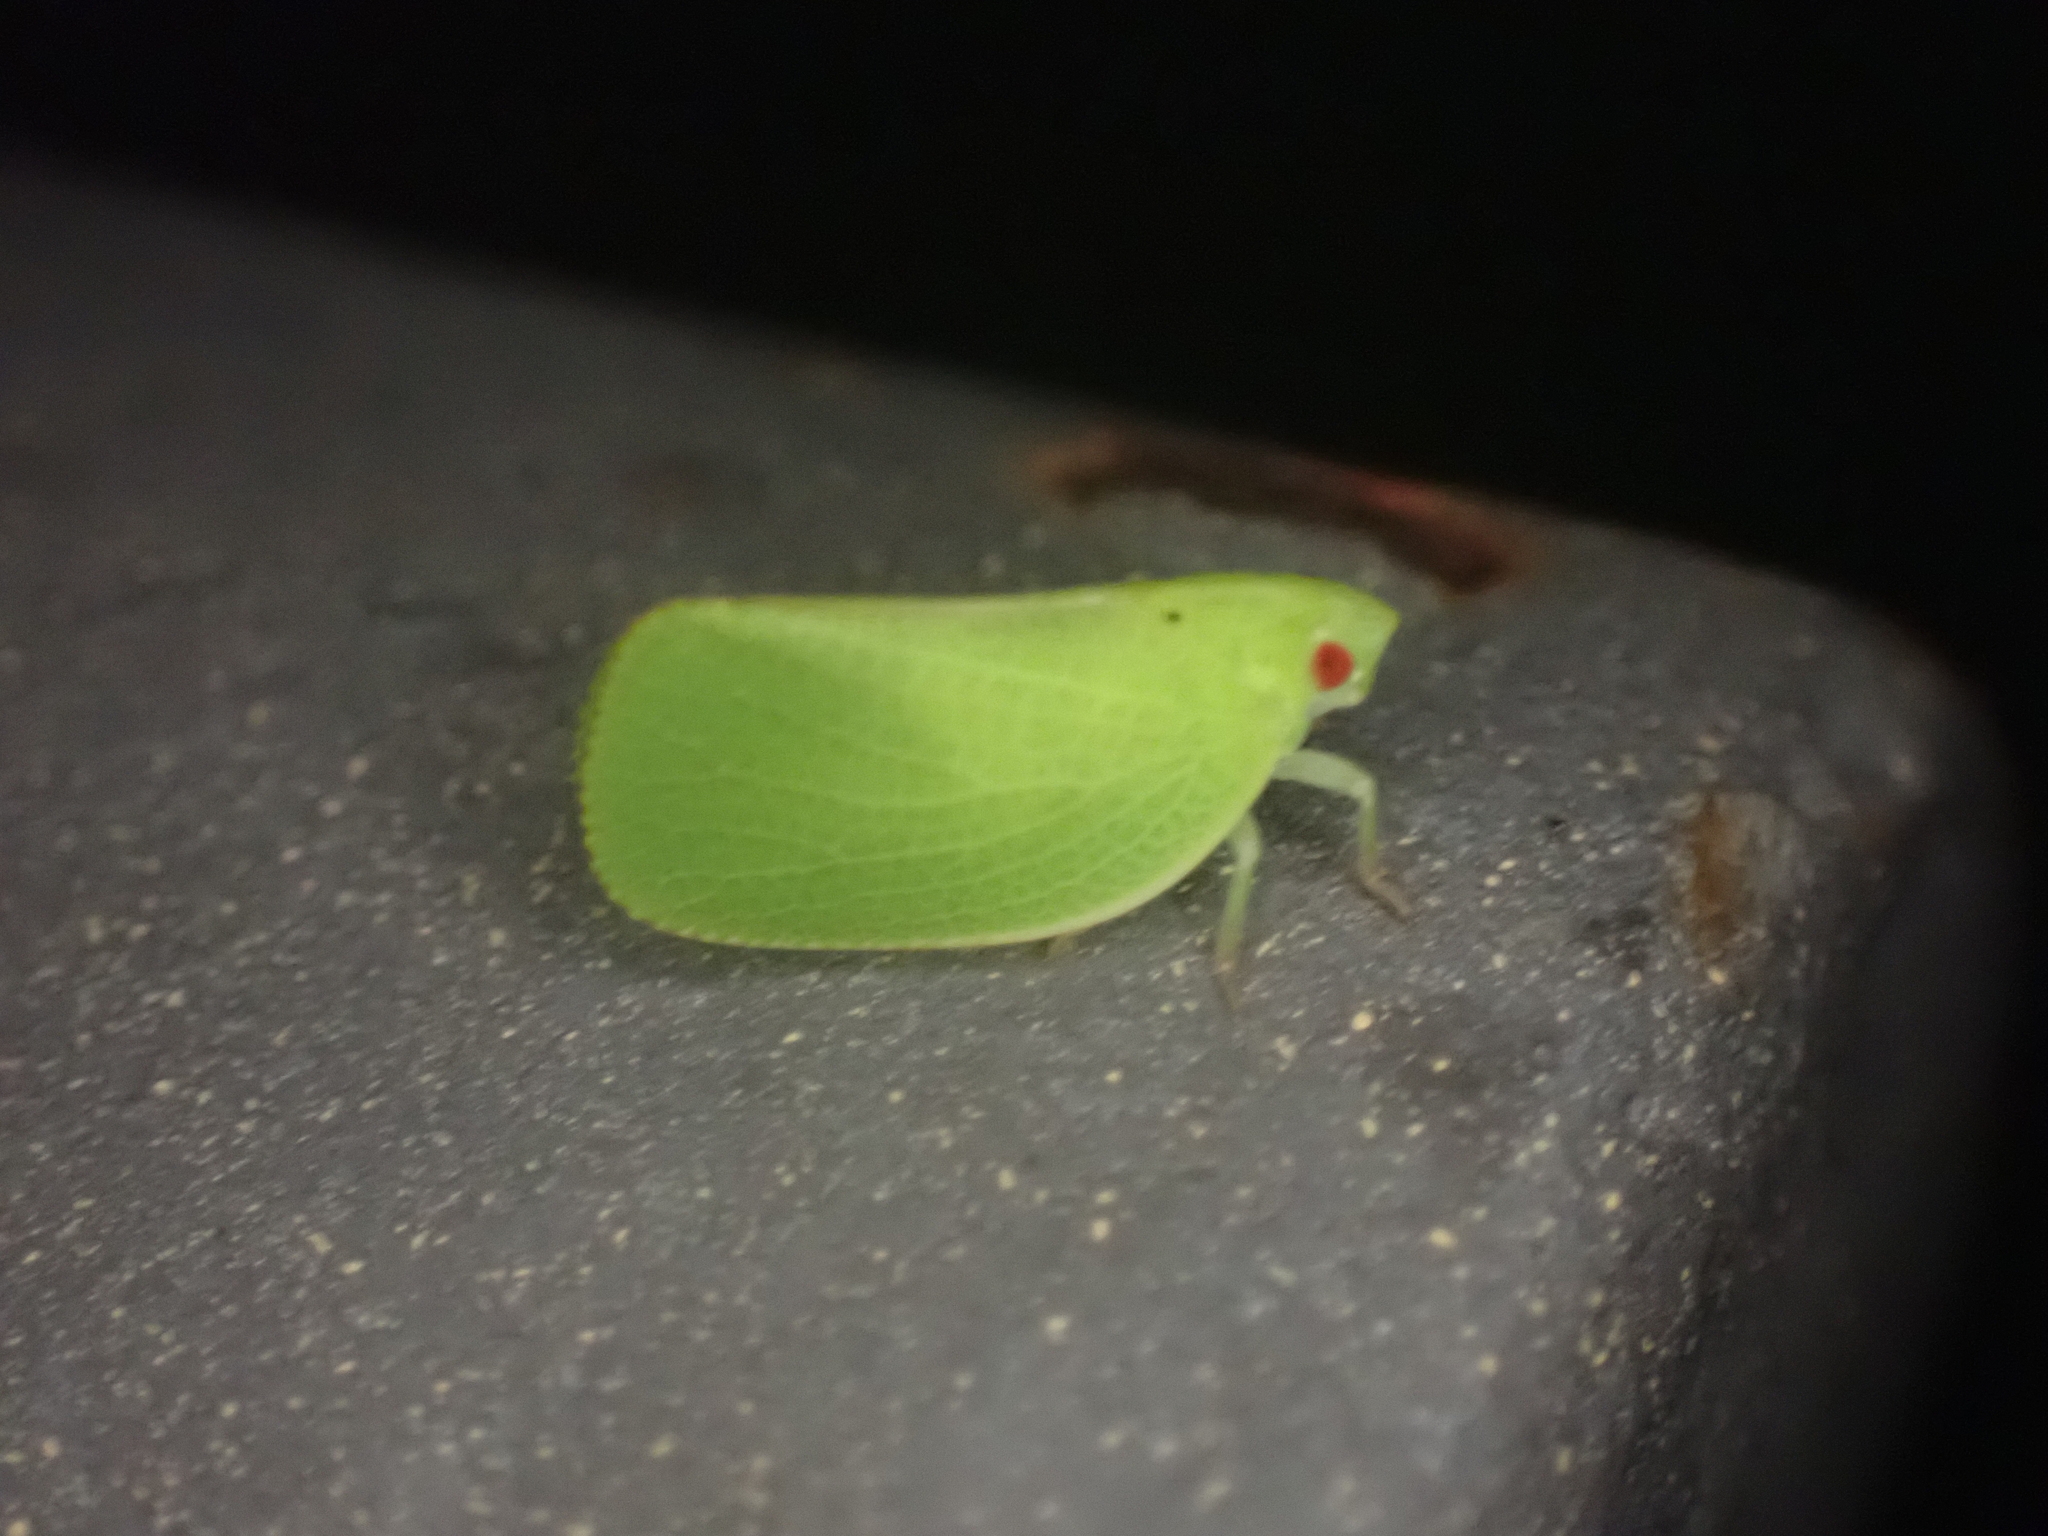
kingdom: Animalia
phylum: Arthropoda
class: Insecta
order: Hemiptera
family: Acanaloniidae
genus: Acanalonia
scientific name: Acanalonia conica
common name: Green cone-headed planthopper
